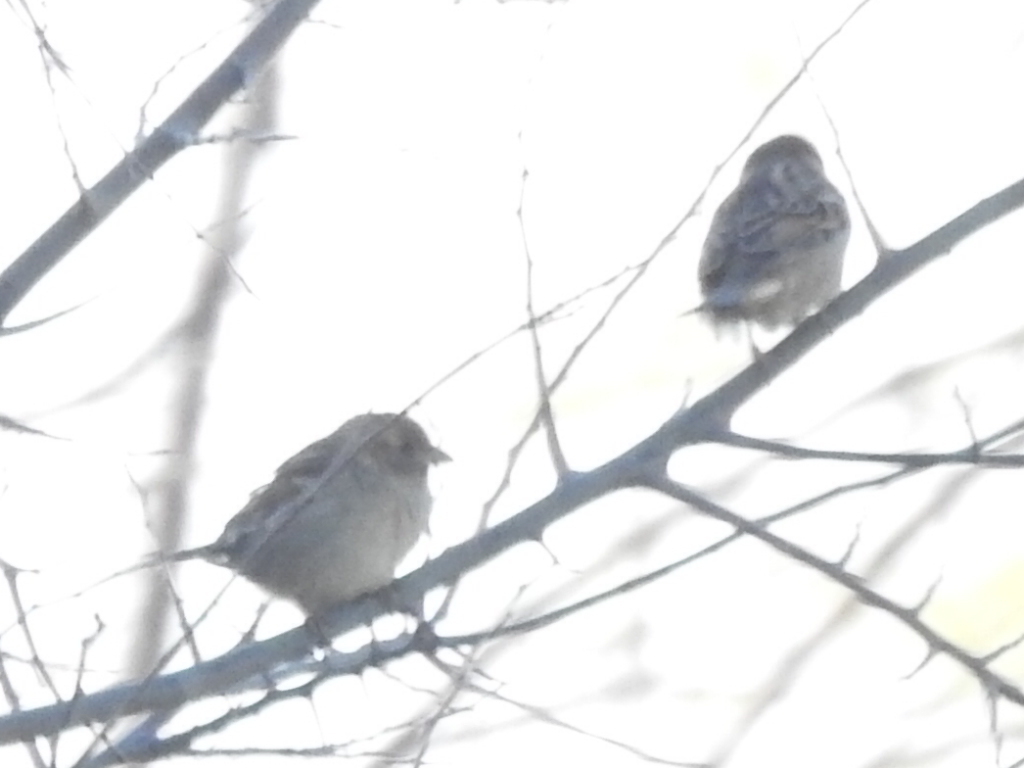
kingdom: Animalia
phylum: Chordata
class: Aves
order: Passeriformes
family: Passeridae
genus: Passer
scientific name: Passer domesticus
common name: House sparrow
